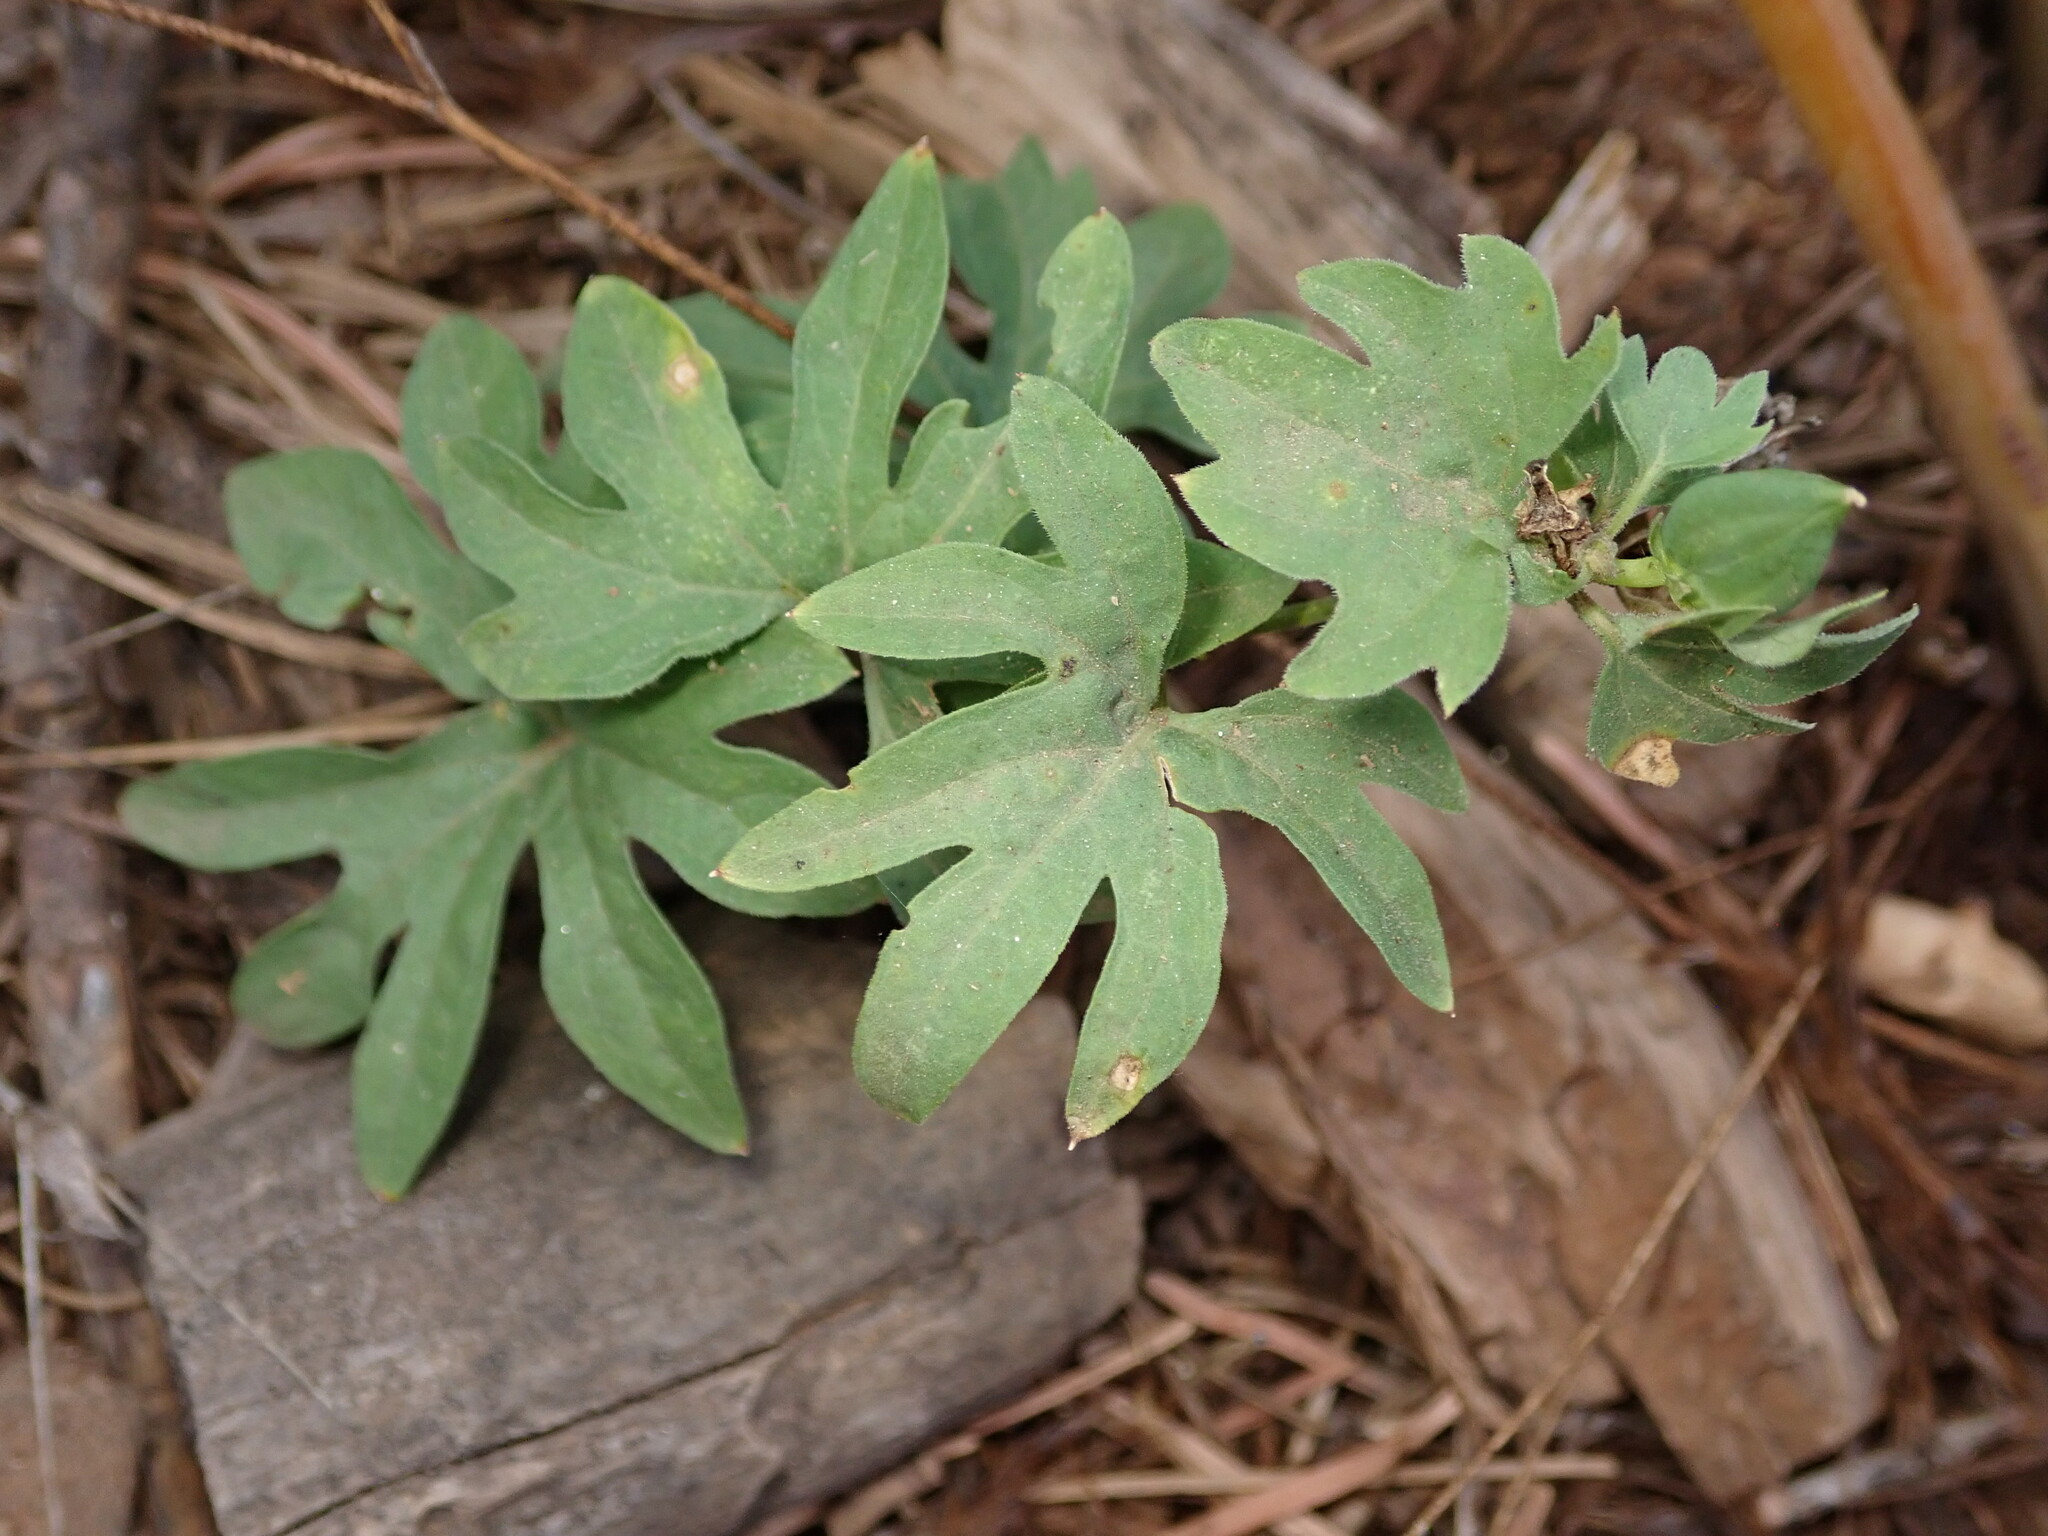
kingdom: Plantae
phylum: Tracheophyta
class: Magnoliopsida
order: Malpighiales
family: Violaceae
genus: Viola
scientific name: Viola lobata
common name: Pine violet
